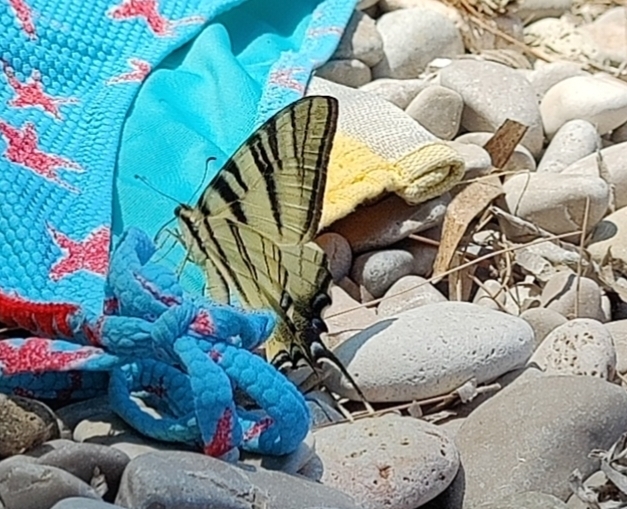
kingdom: Animalia
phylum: Arthropoda
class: Insecta
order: Lepidoptera
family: Papilionidae
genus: Iphiclides
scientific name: Iphiclides podalirius
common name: Scarce swallowtail
